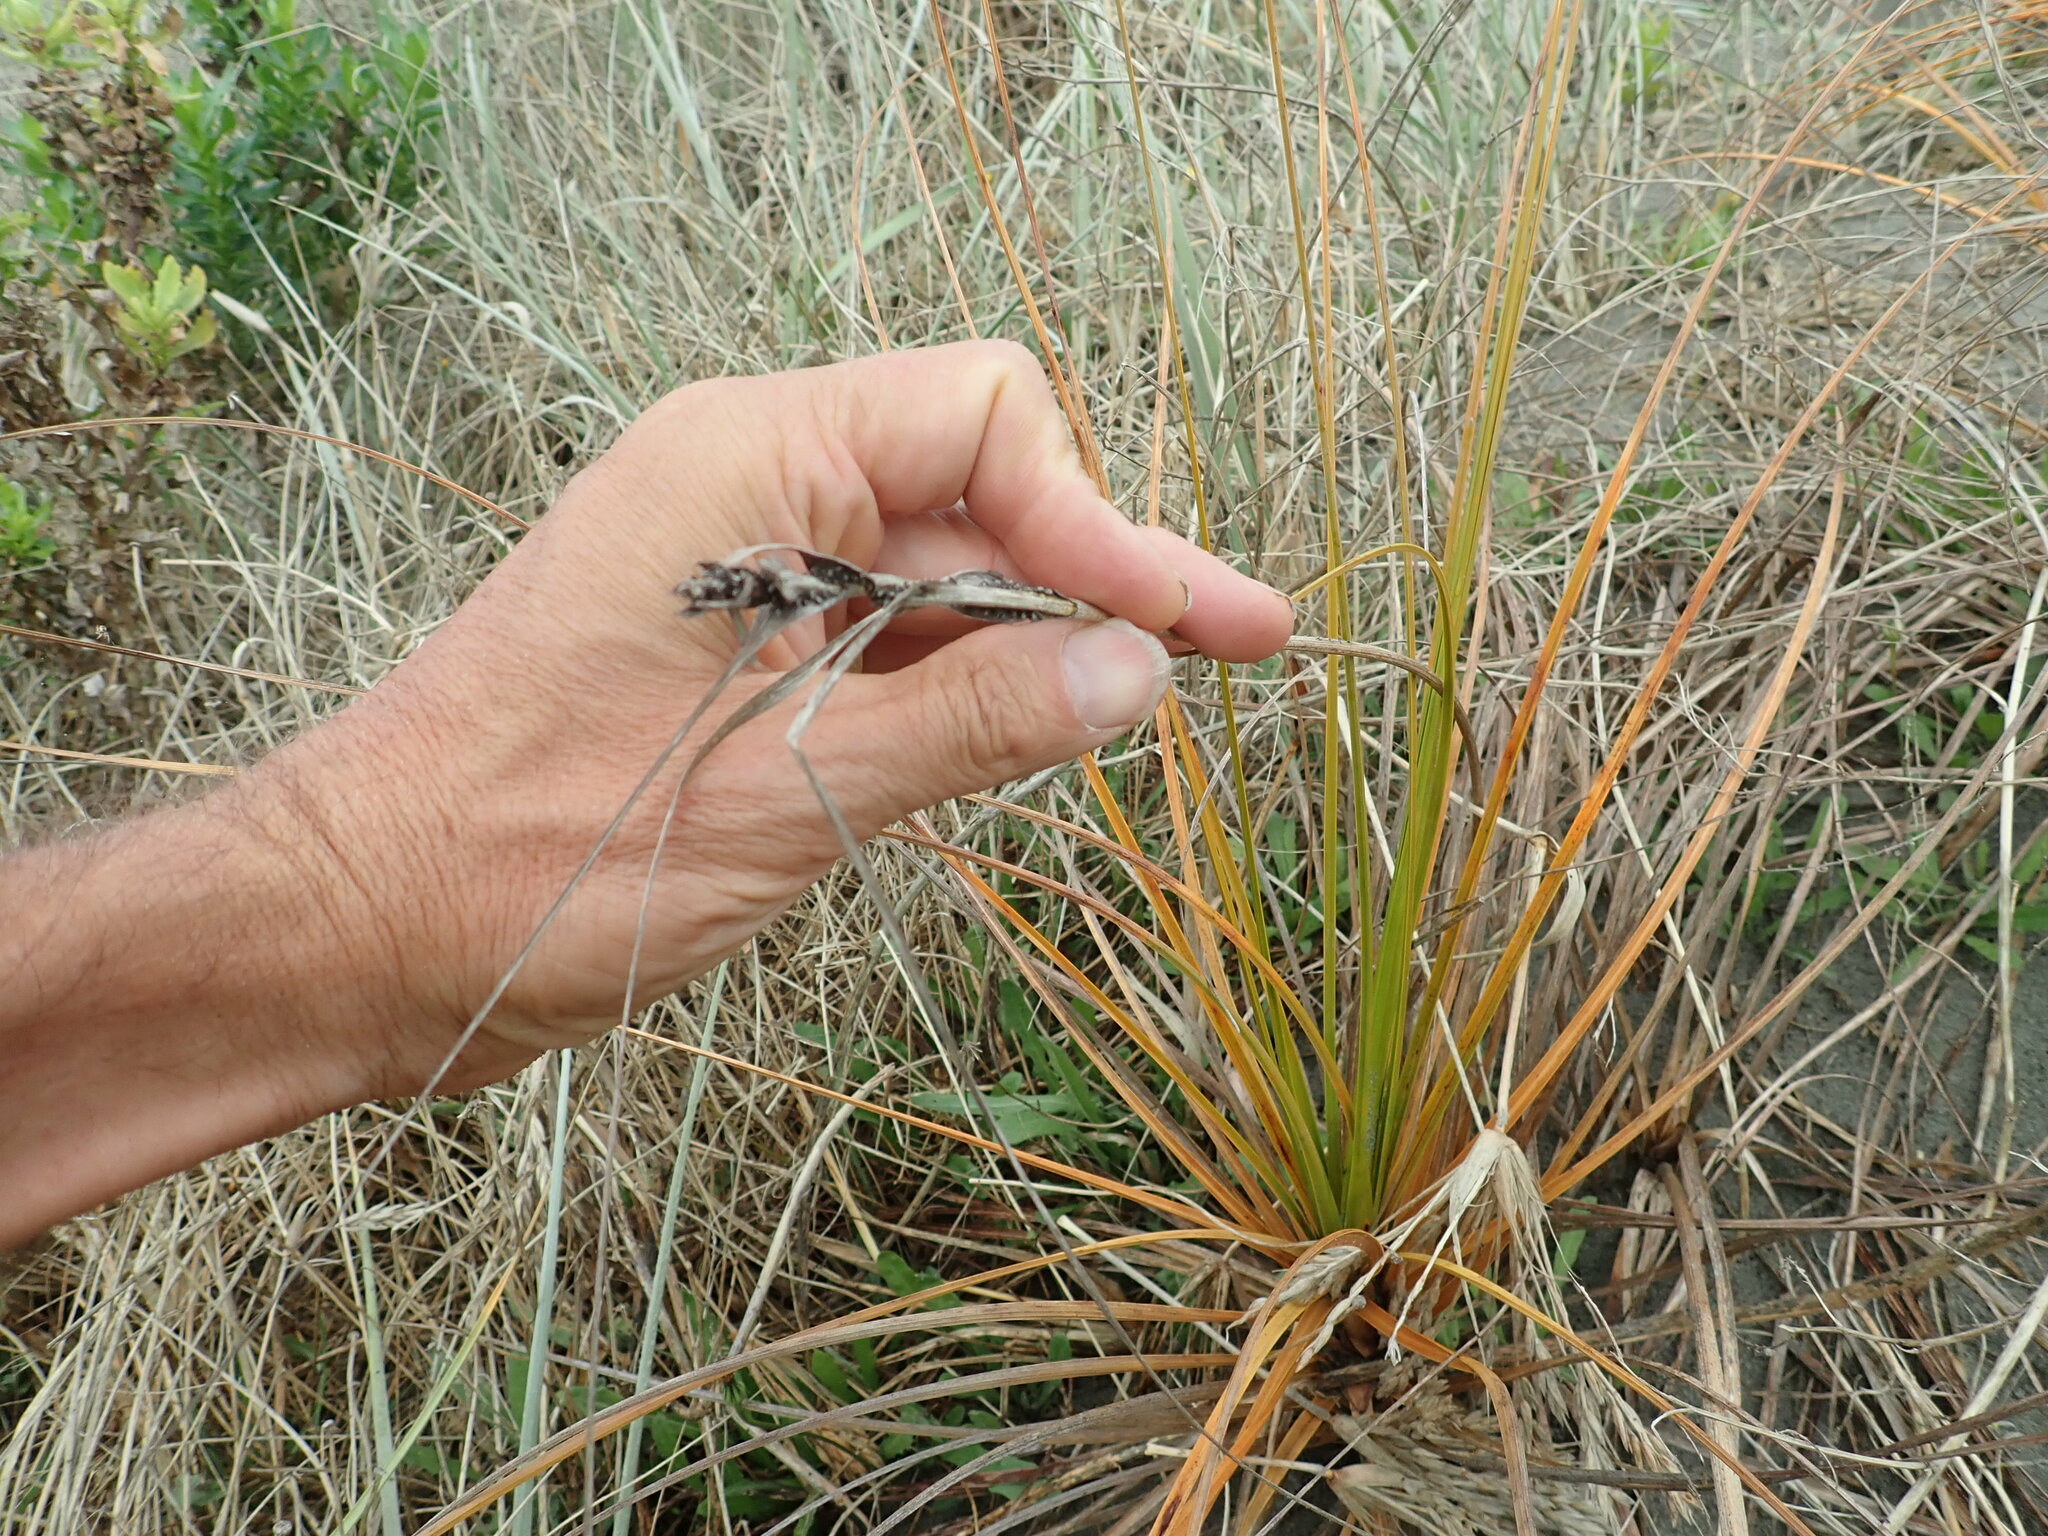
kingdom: Plantae
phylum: Tracheophyta
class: Liliopsida
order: Poales
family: Cyperaceae
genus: Ficinia
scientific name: Ficinia spiralis
